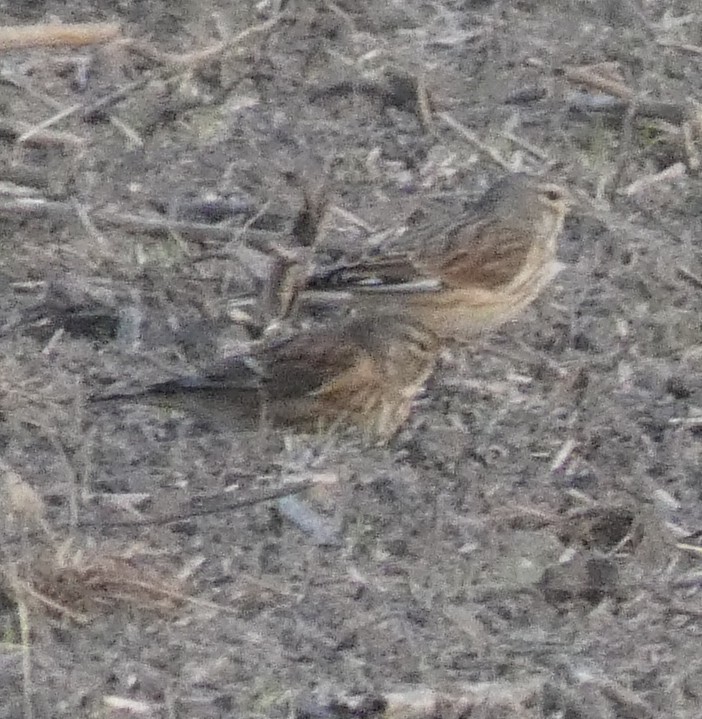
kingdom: Animalia
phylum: Chordata
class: Aves
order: Passeriformes
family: Fringillidae
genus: Linaria
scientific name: Linaria cannabina
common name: Common linnet
